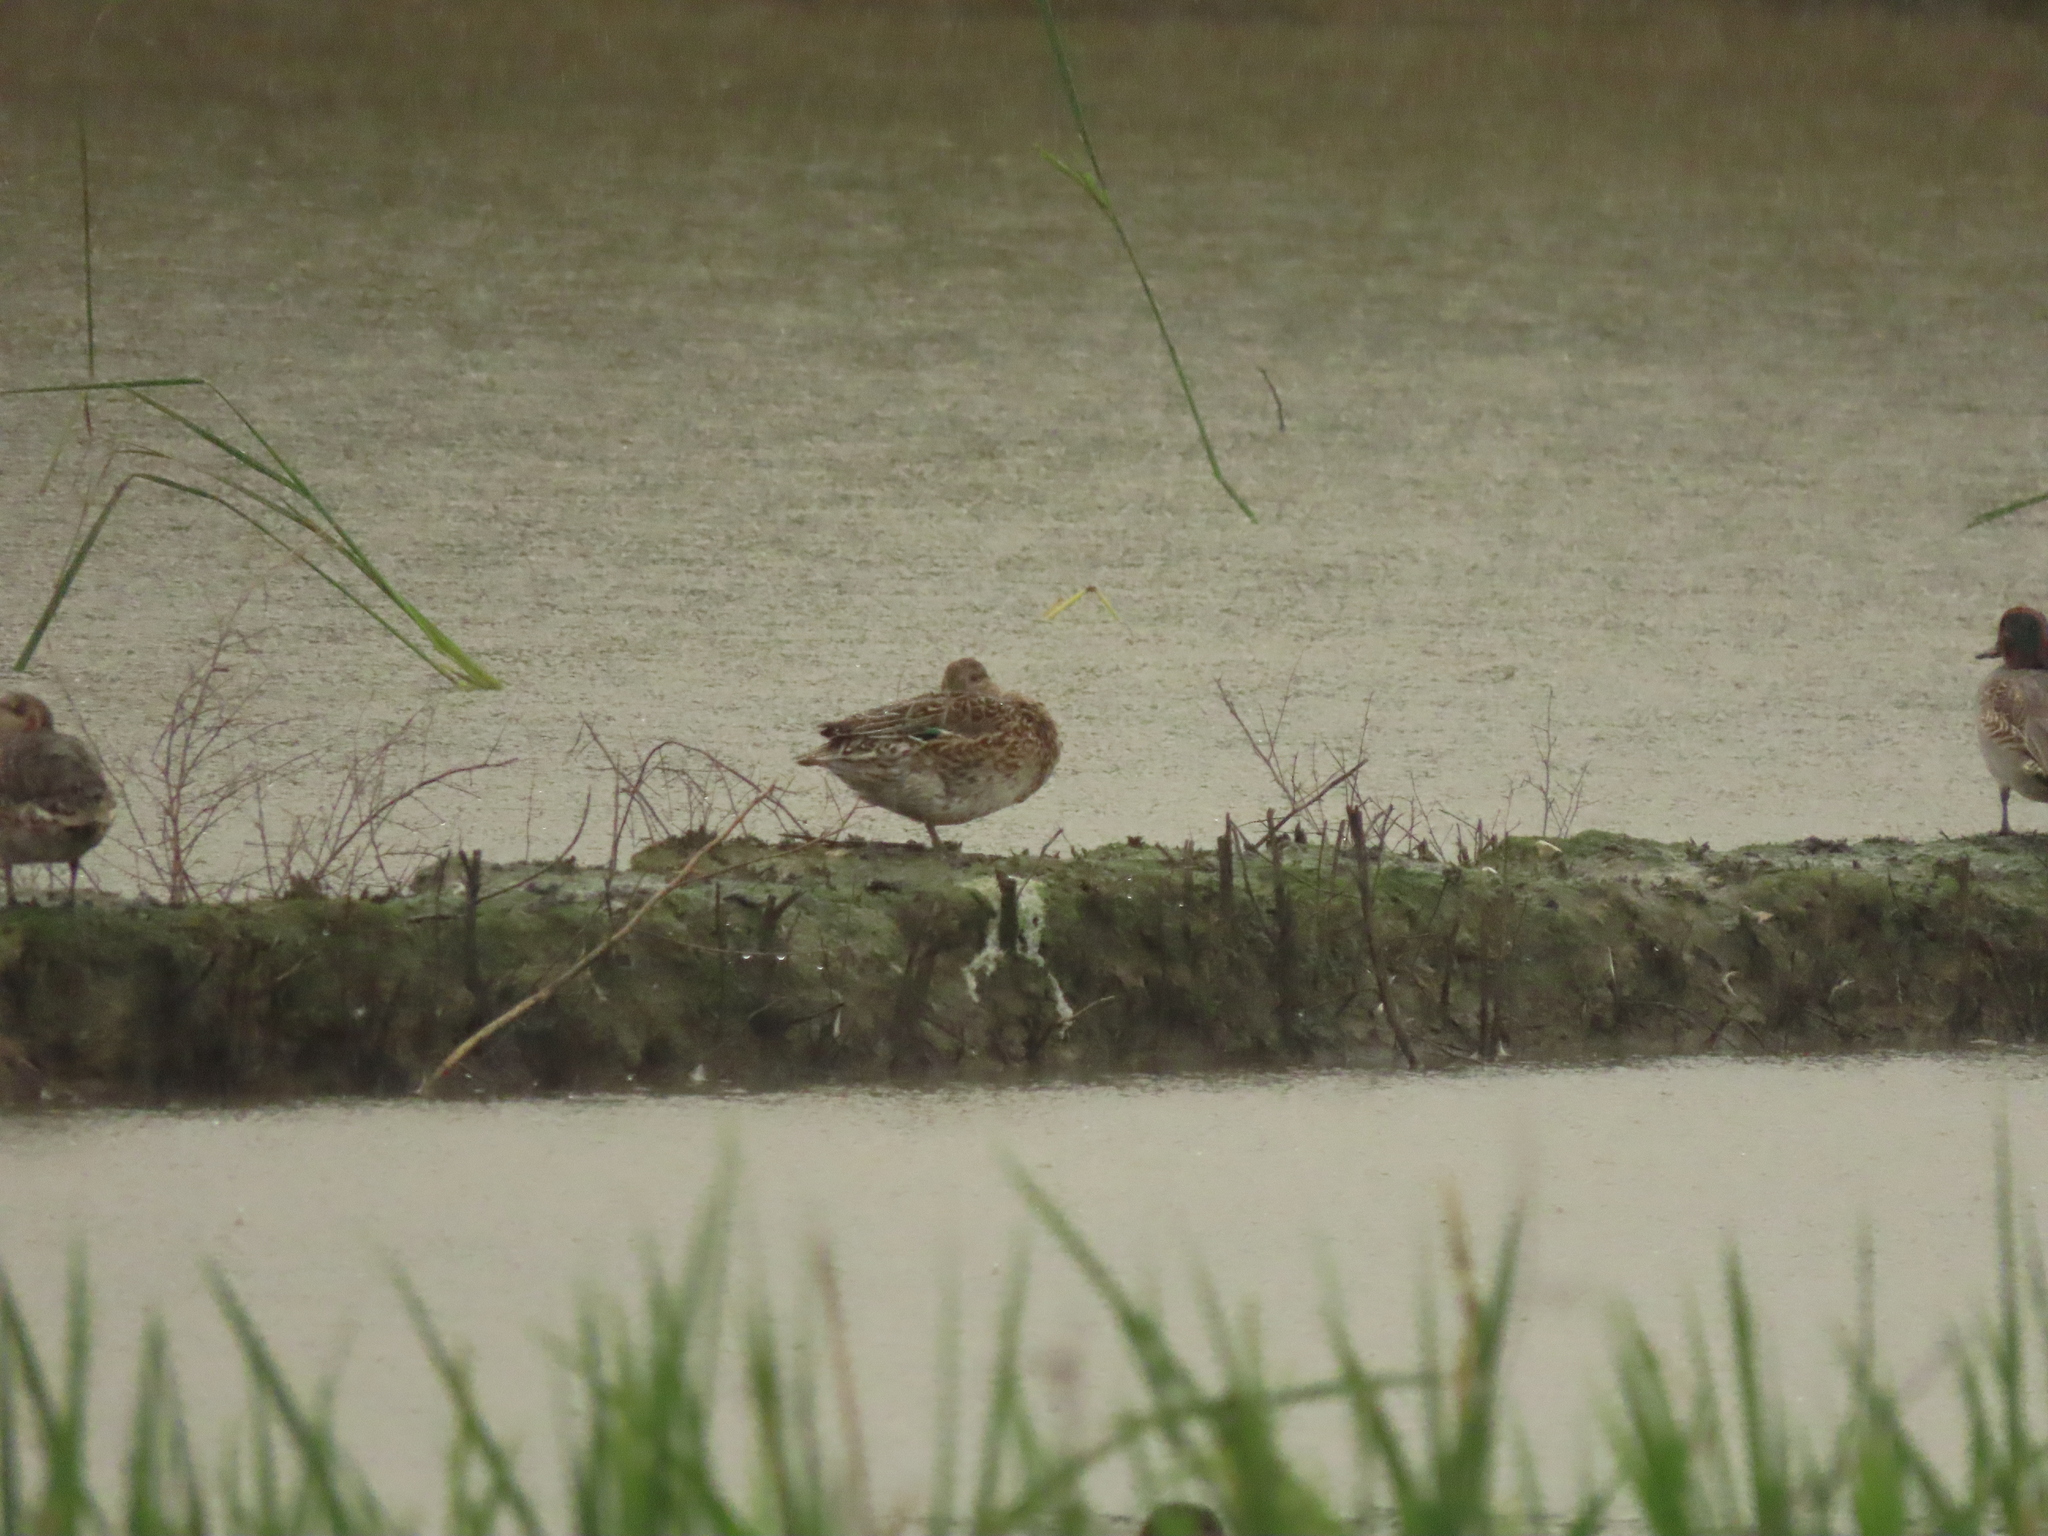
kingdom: Animalia
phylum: Chordata
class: Aves
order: Anseriformes
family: Anatidae
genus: Anas
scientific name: Anas crecca
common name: Eurasian teal
